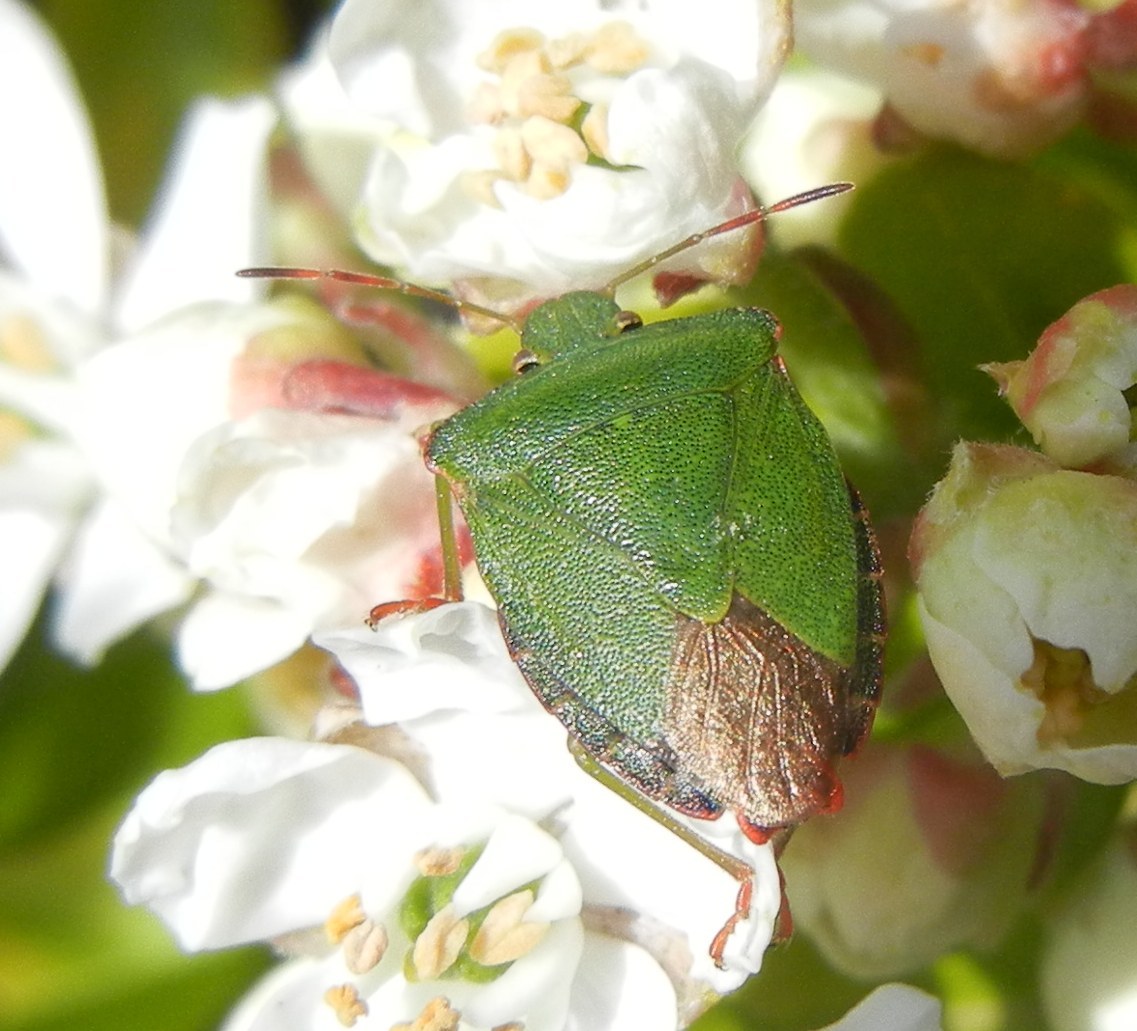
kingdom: Animalia
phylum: Arthropoda
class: Insecta
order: Hemiptera
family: Pentatomidae
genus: Palomena
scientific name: Palomena prasina
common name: Green shieldbug
